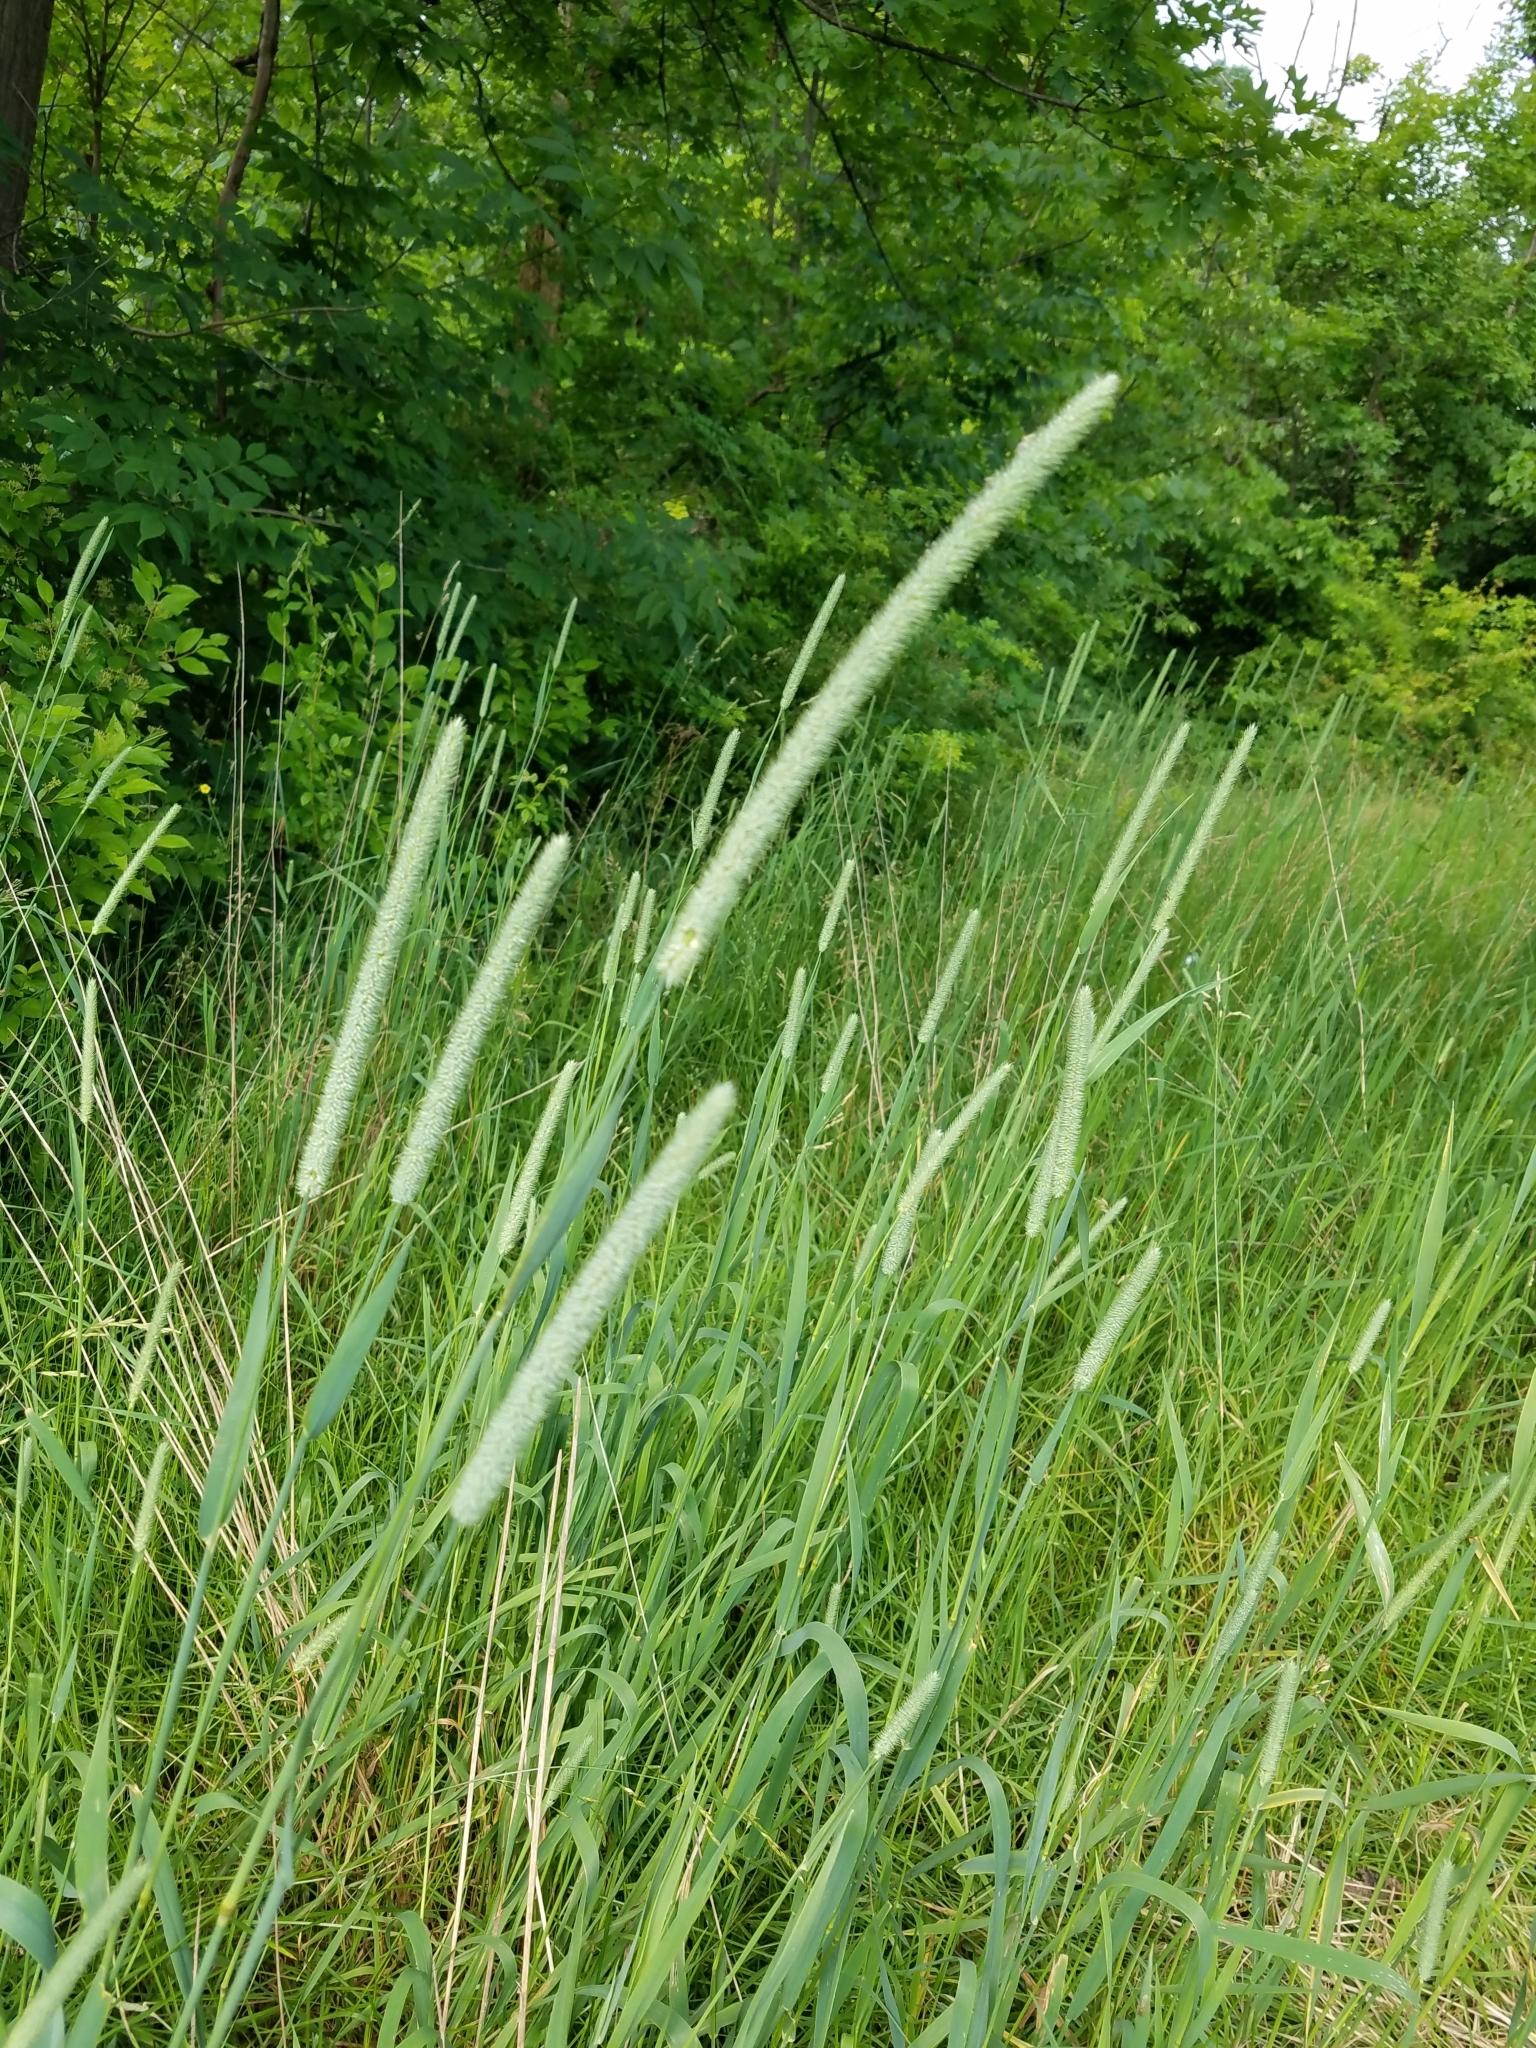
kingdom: Plantae
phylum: Tracheophyta
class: Liliopsida
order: Poales
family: Poaceae
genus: Phleum
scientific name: Phleum pratense
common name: Timothy grass
